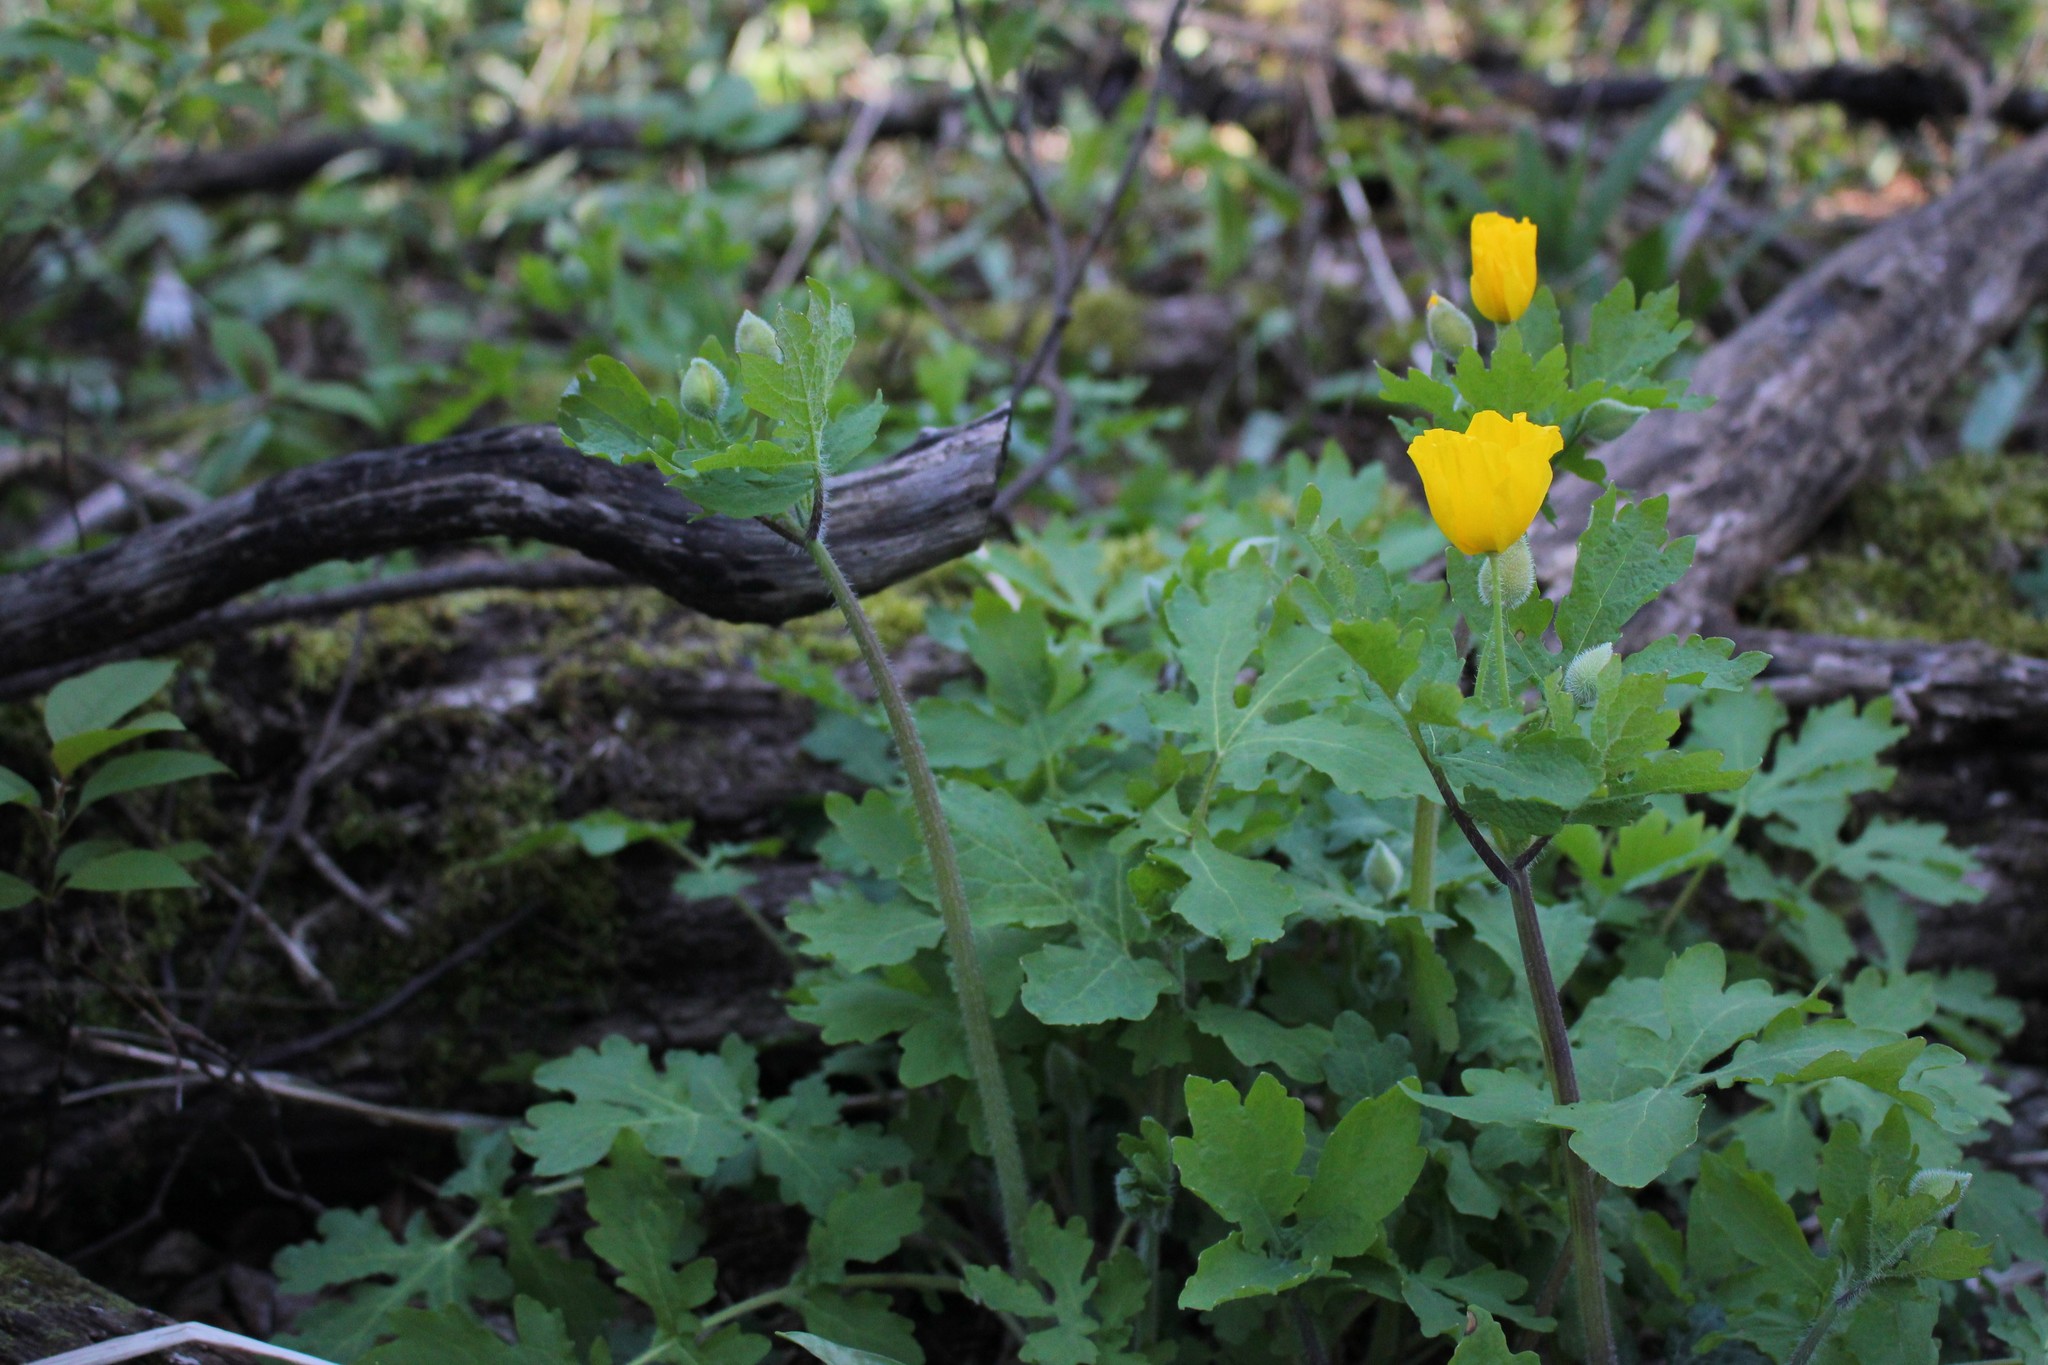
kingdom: Plantae
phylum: Tracheophyta
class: Magnoliopsida
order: Ranunculales
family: Papaveraceae
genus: Stylophorum
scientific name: Stylophorum diphyllum
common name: Celandine poppy
